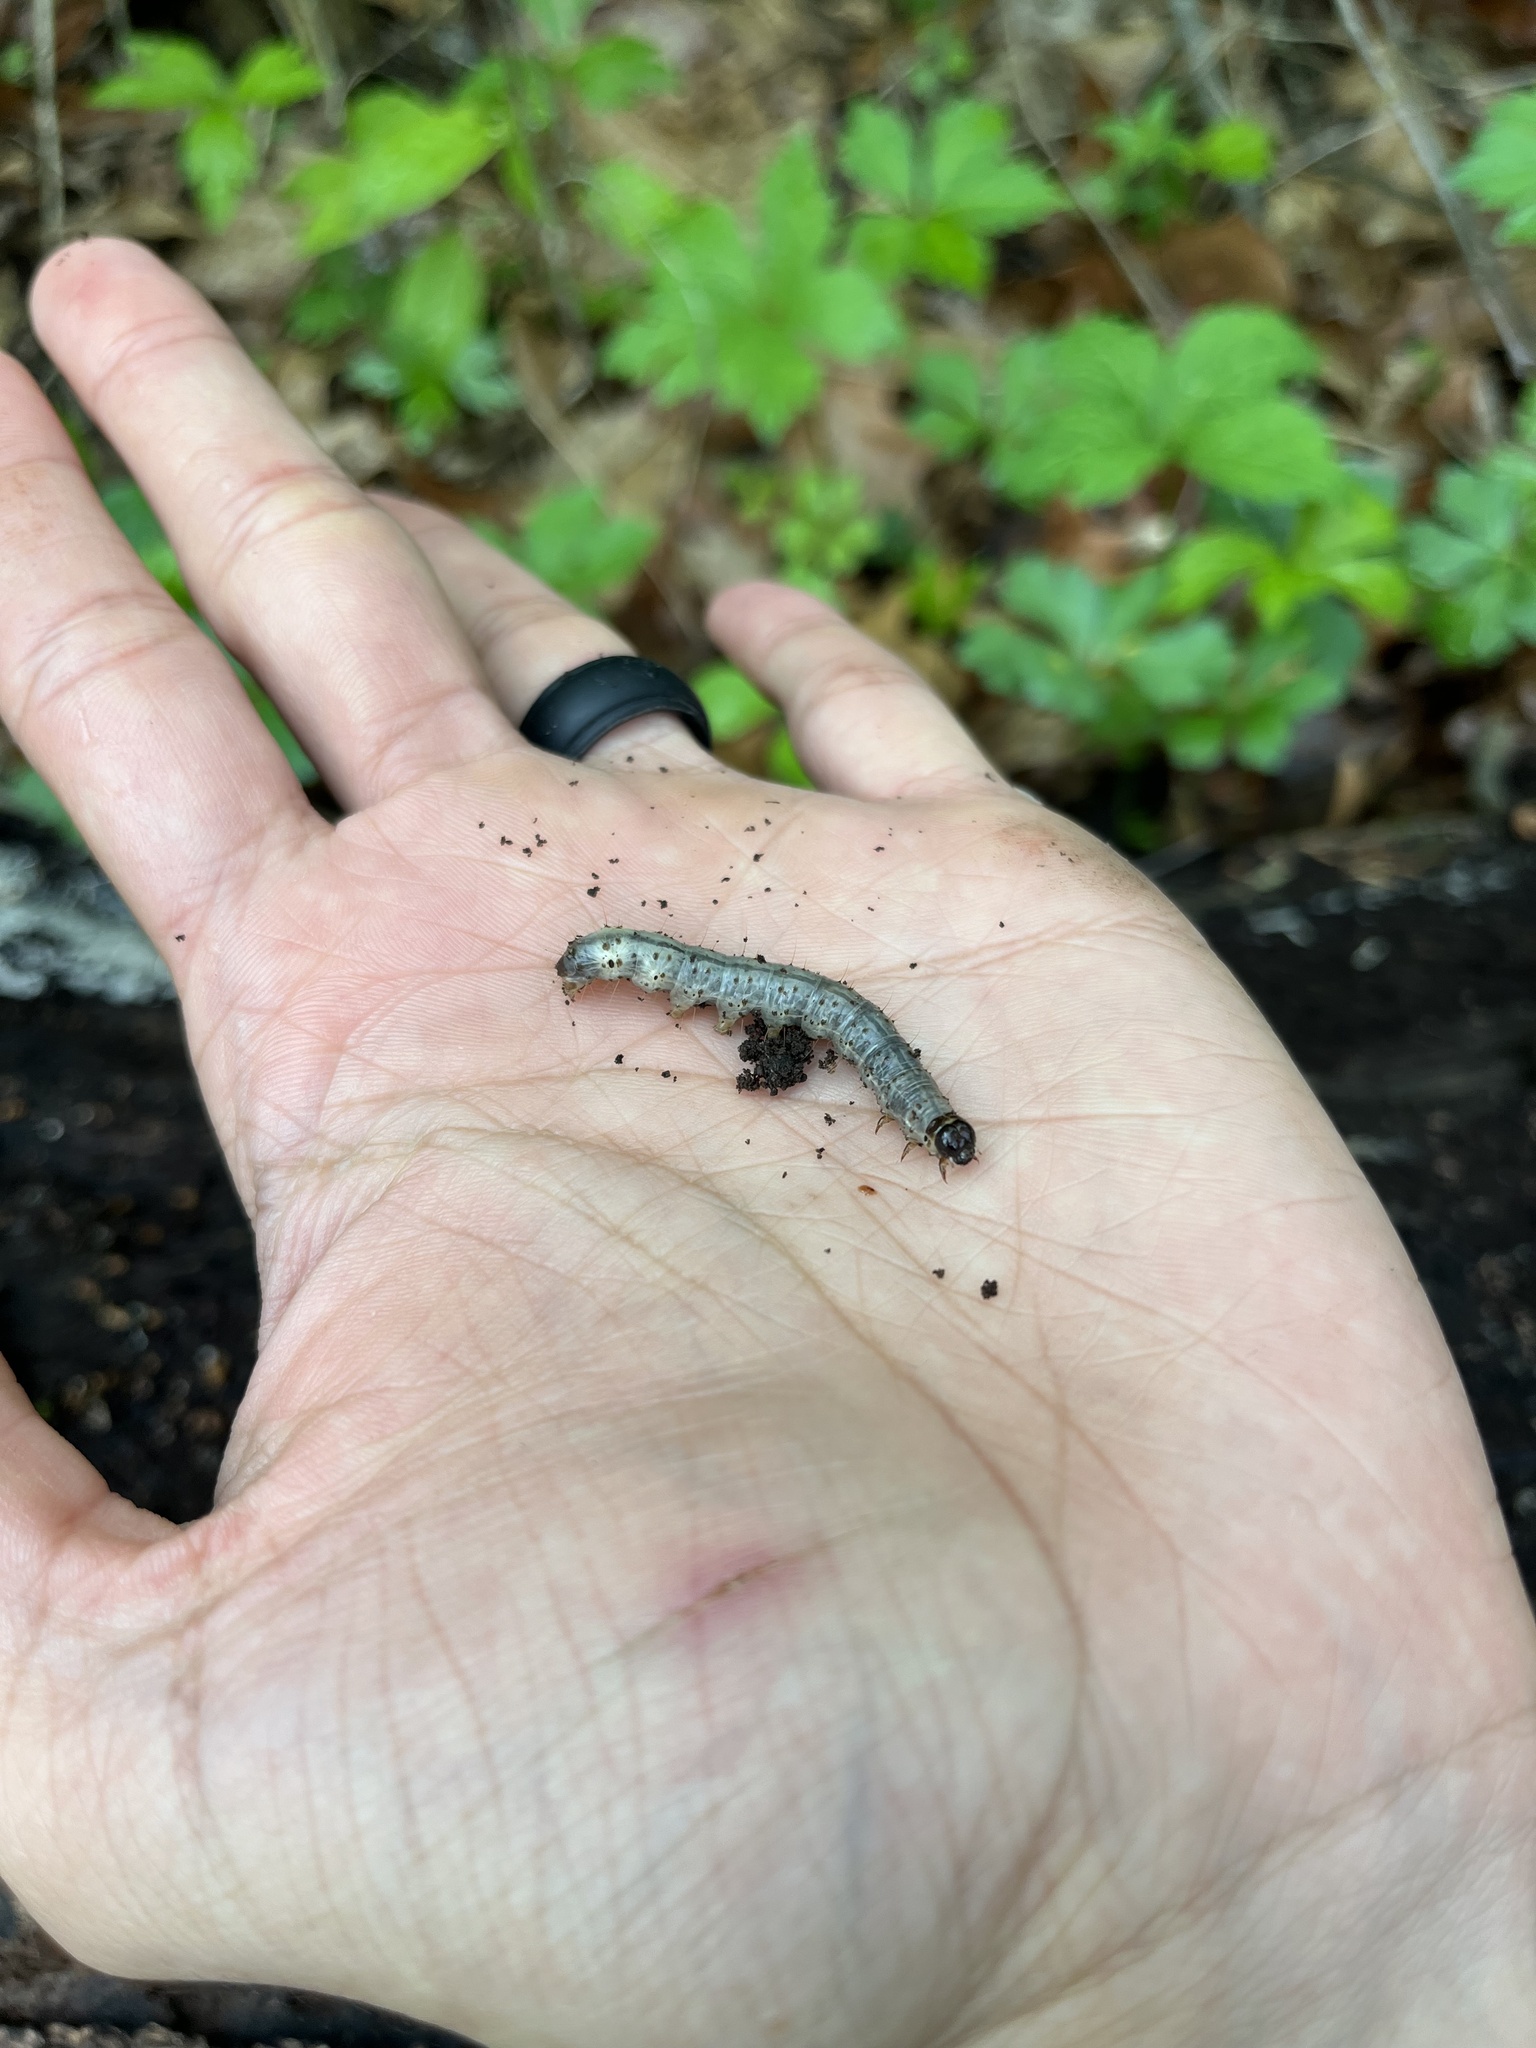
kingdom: Animalia
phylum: Arthropoda
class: Insecta
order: Lepidoptera
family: Erebidae
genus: Scolecocampa
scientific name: Scolecocampa liburna
